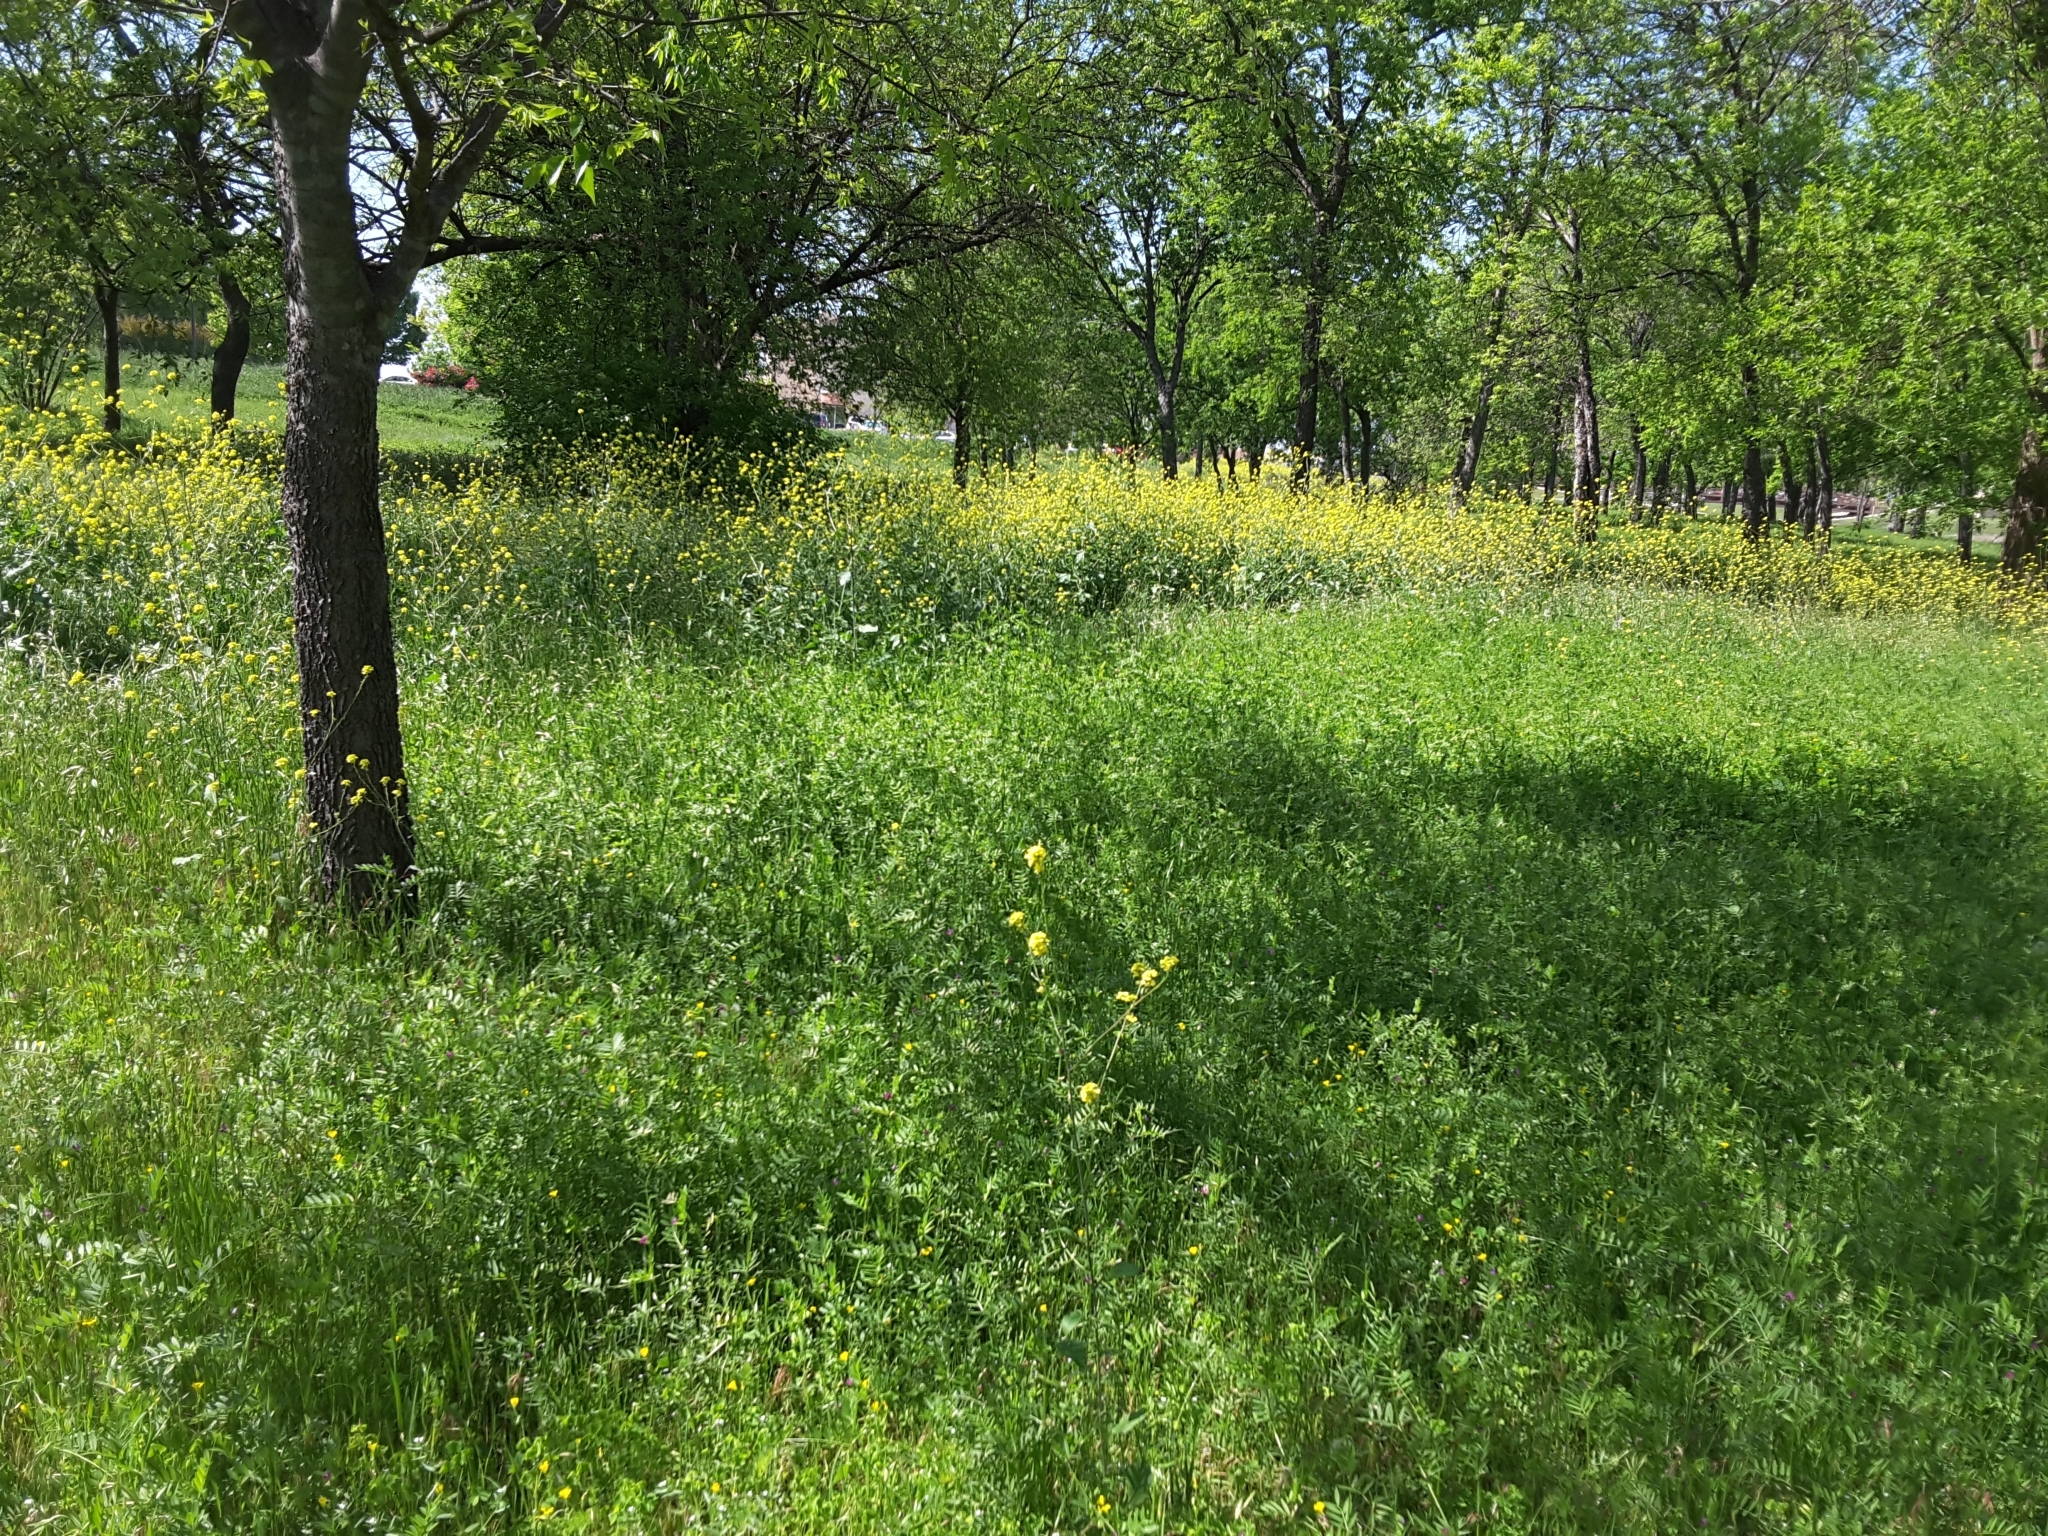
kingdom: Plantae
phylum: Tracheophyta
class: Magnoliopsida
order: Brassicales
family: Brassicaceae
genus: Rapistrum
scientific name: Rapistrum rugosum
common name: Annual bastardcabbage
